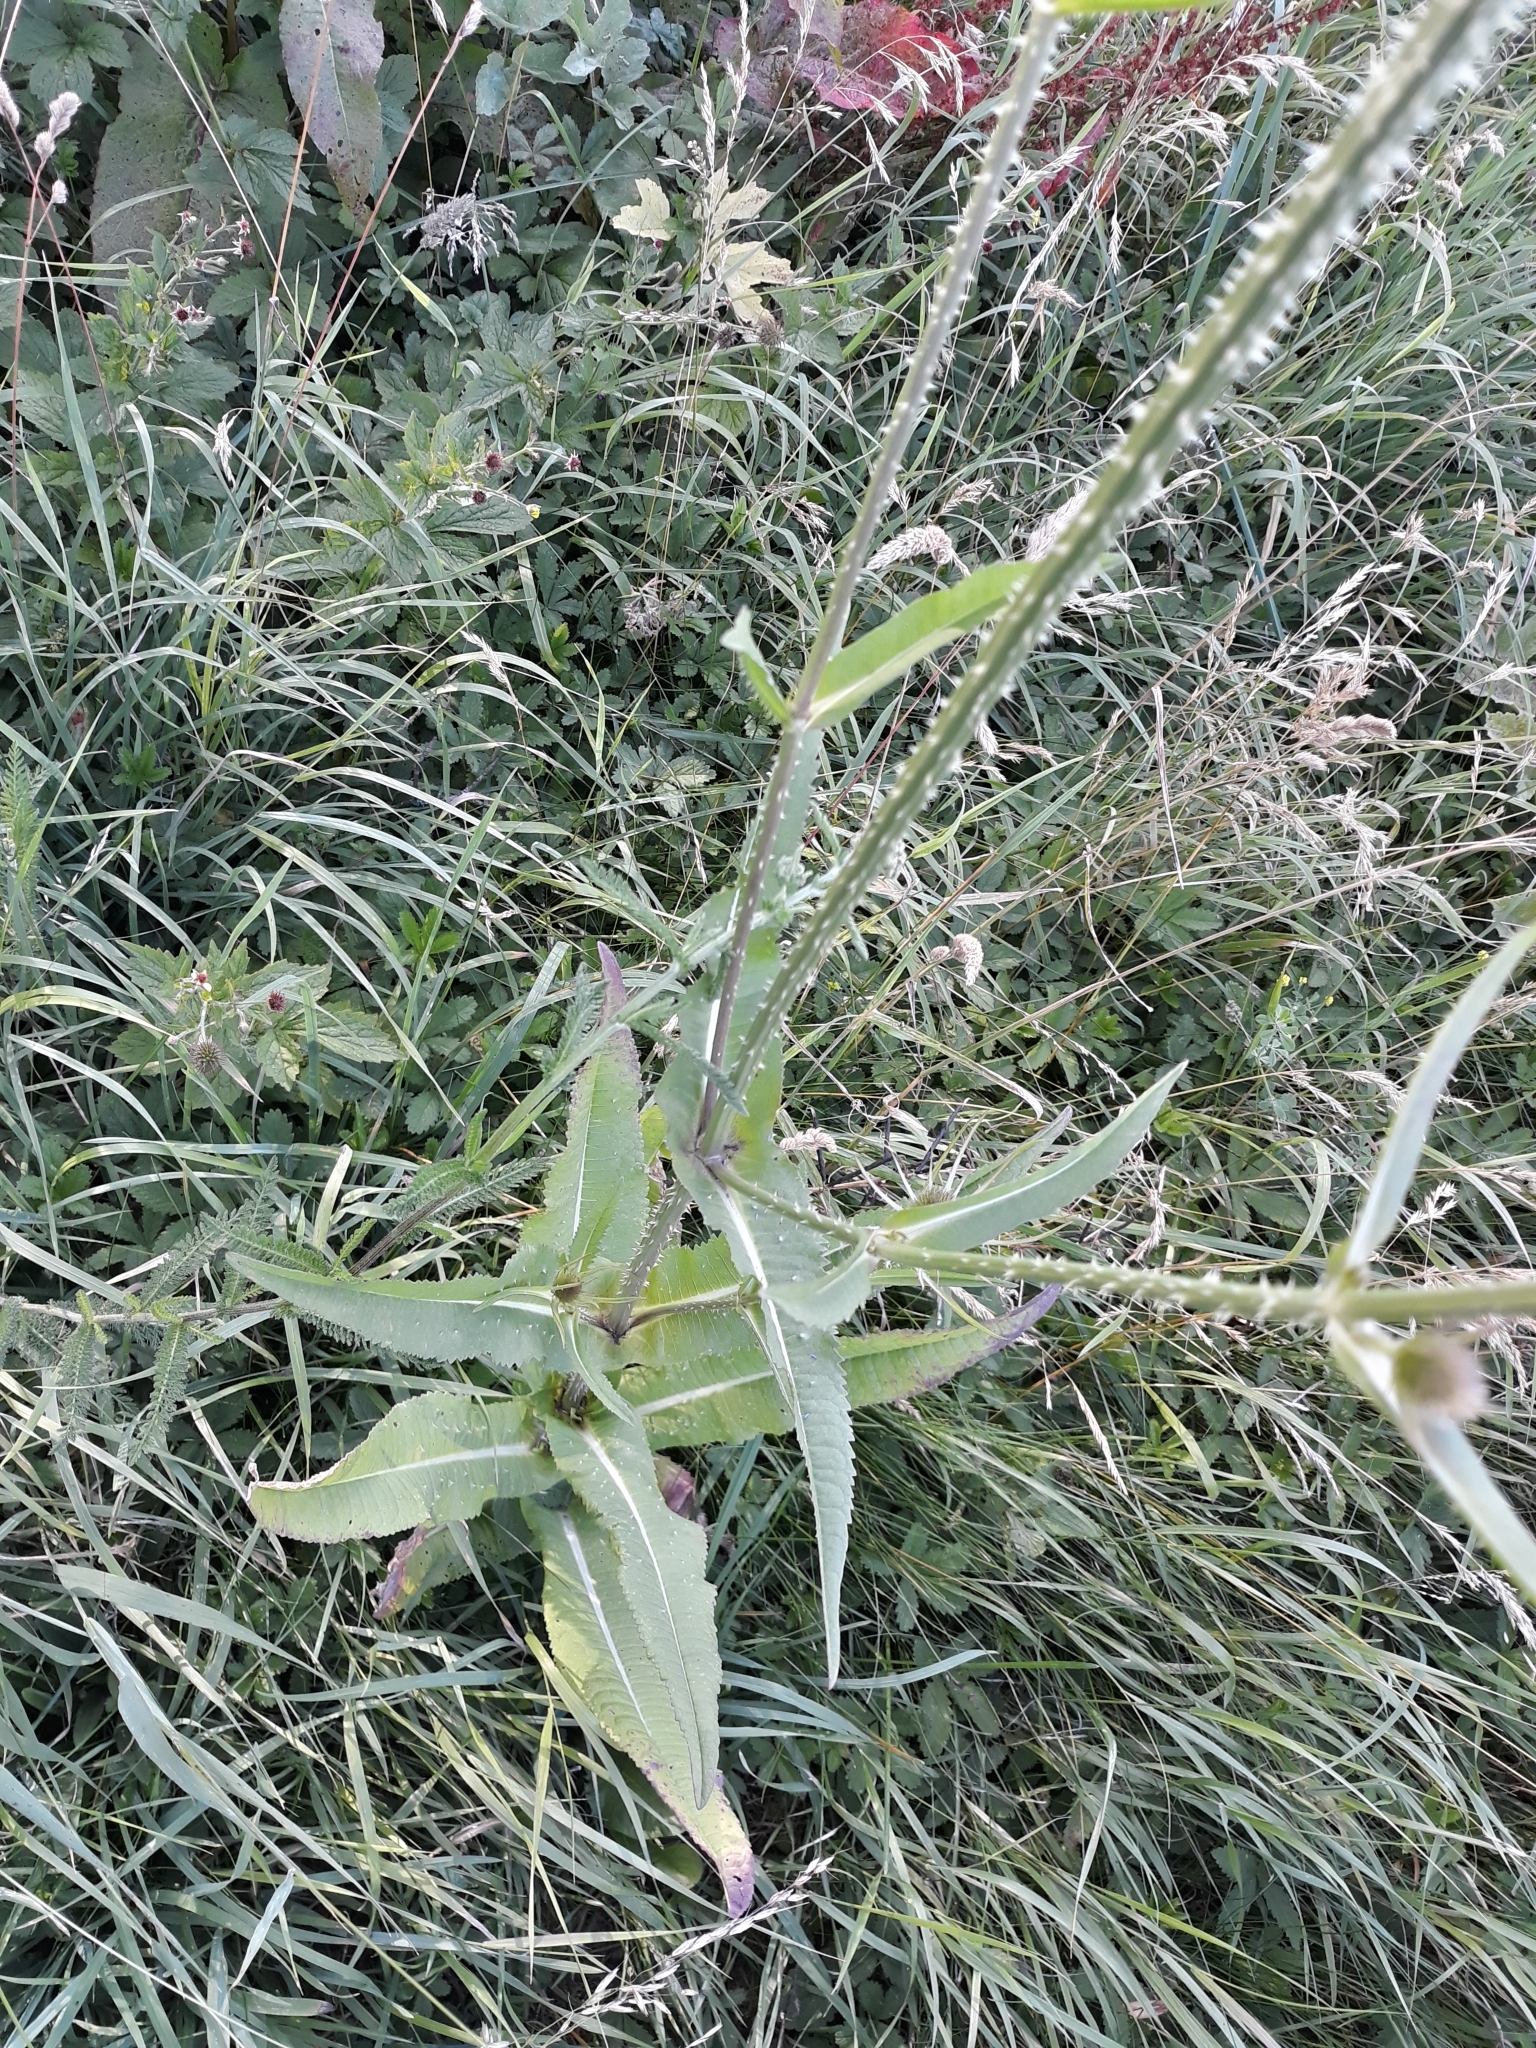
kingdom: Plantae
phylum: Tracheophyta
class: Magnoliopsida
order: Dipsacales
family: Caprifoliaceae
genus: Dipsacus
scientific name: Dipsacus fullonum
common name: Teasel
